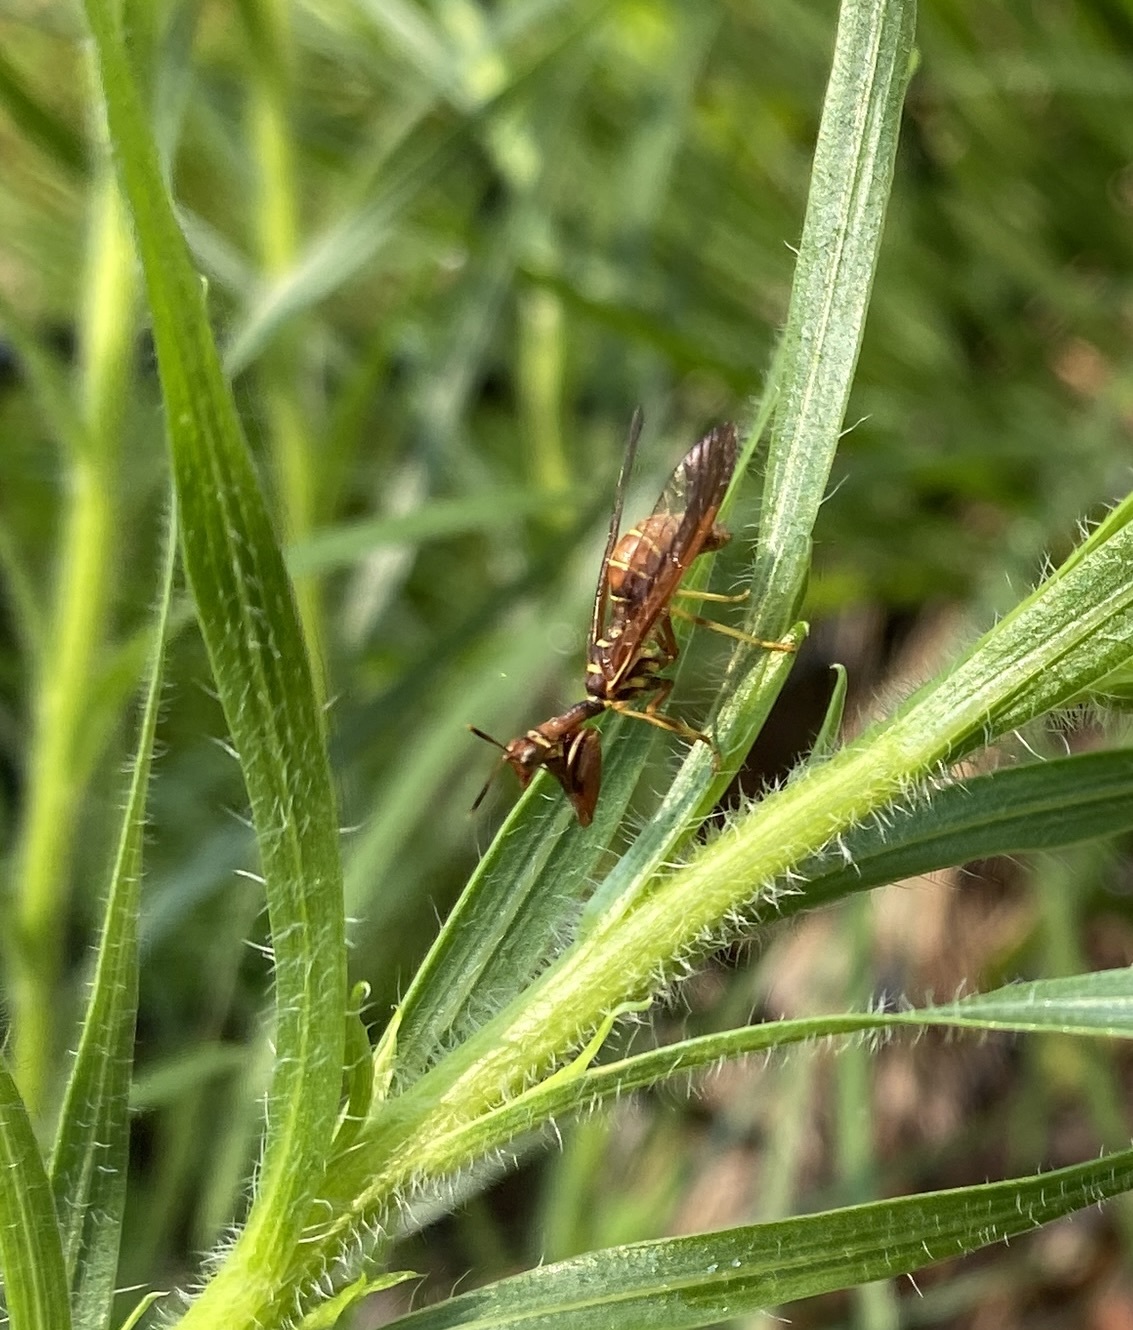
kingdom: Animalia
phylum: Arthropoda
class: Insecta
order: Neuroptera
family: Mantispidae
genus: Climaciella
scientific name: Climaciella brunnea
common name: Brown wasp mantidfly
